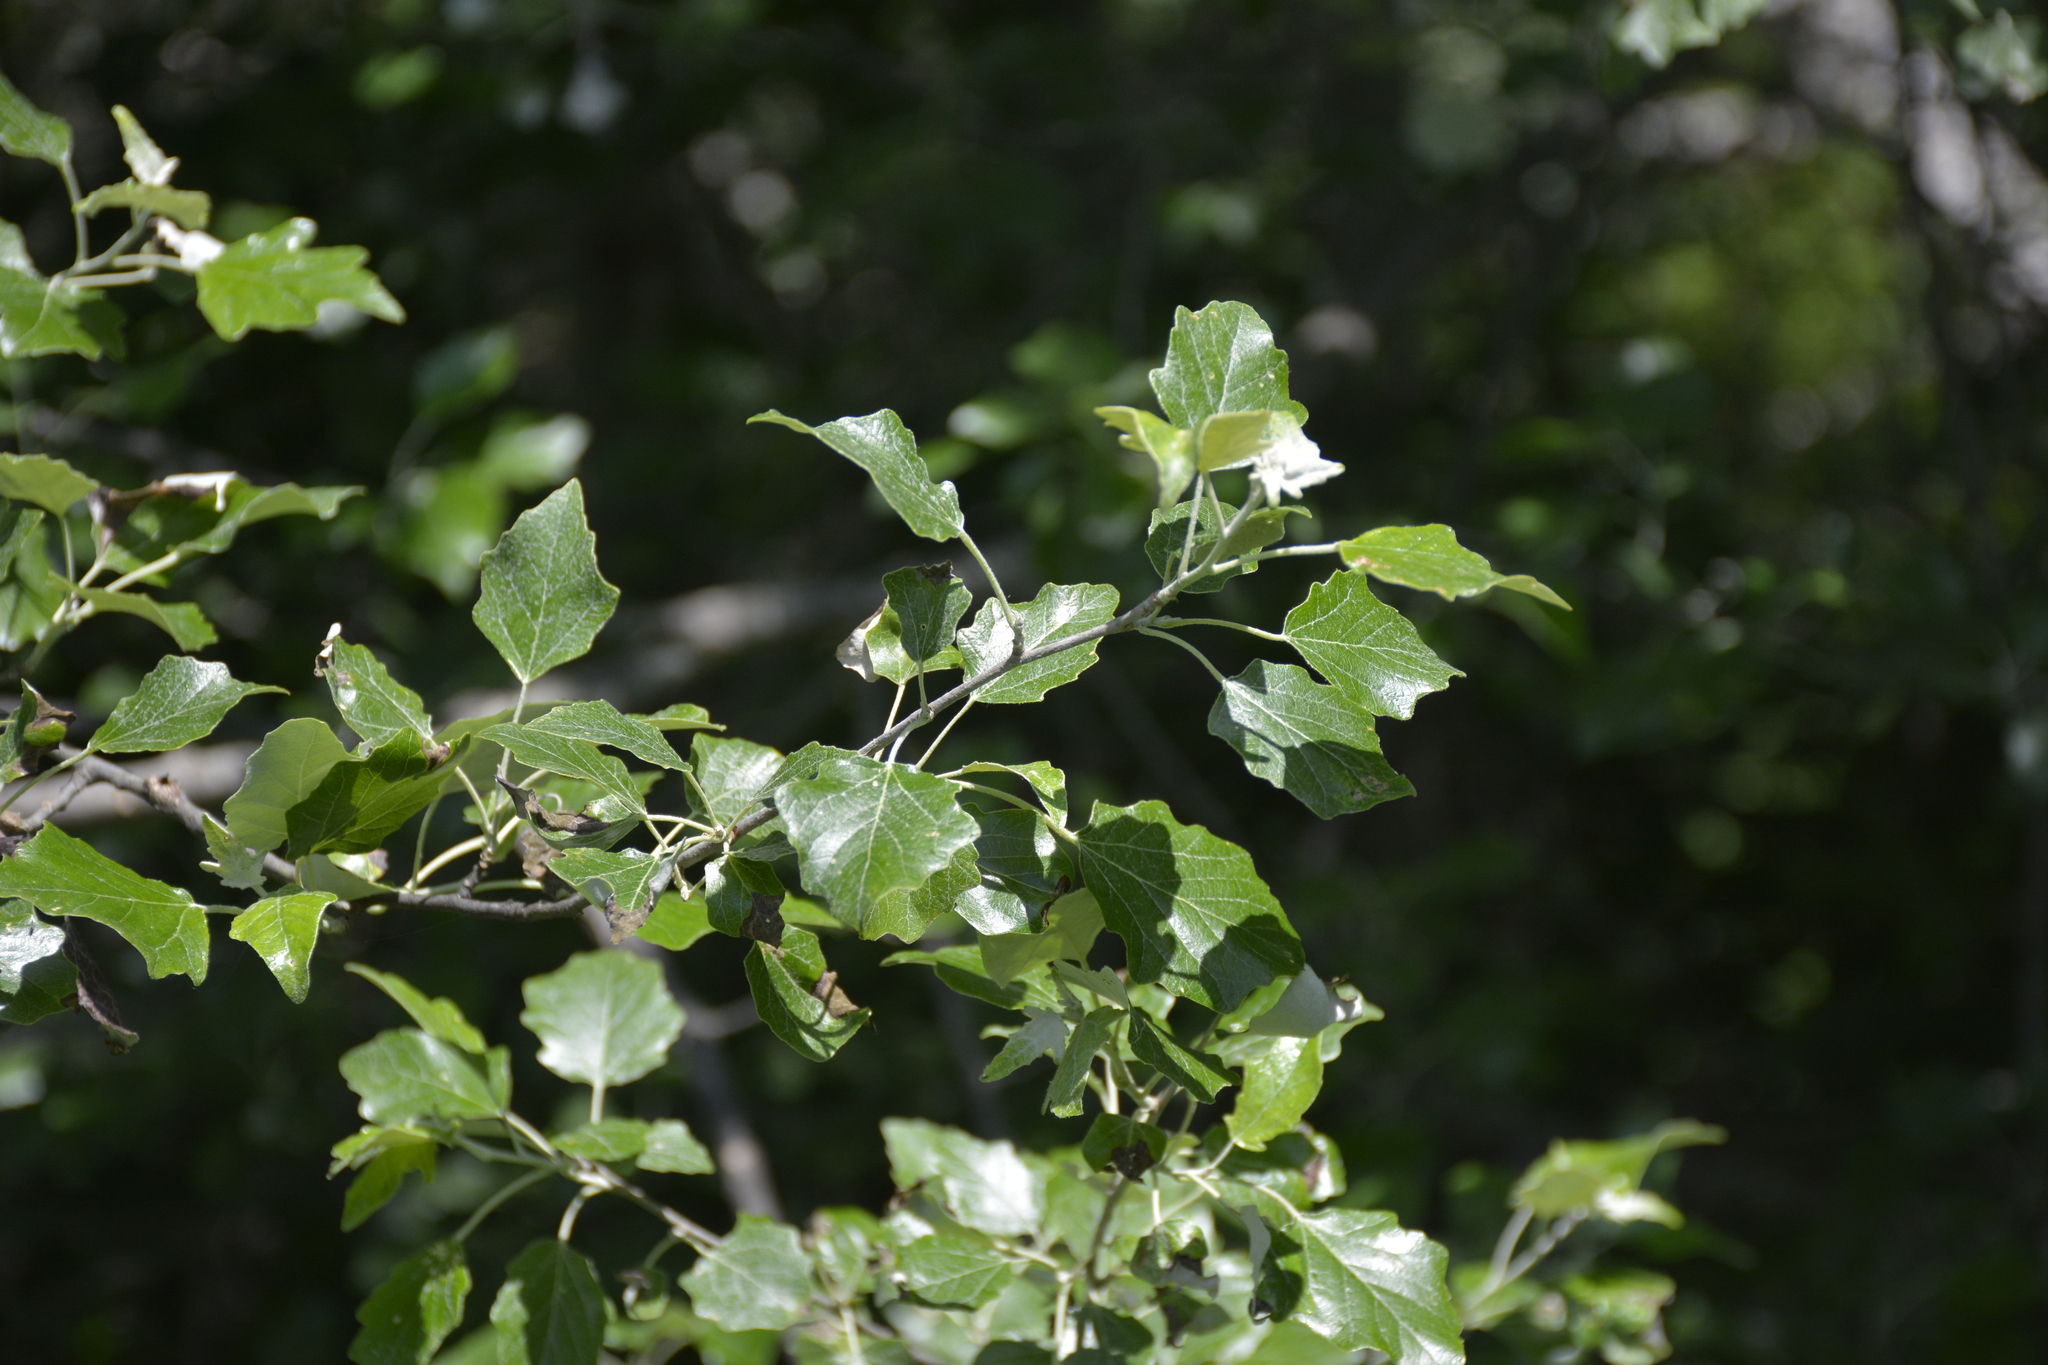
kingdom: Plantae
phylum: Tracheophyta
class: Magnoliopsida
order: Malpighiales
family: Salicaceae
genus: Populus
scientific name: Populus alba
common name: White poplar
